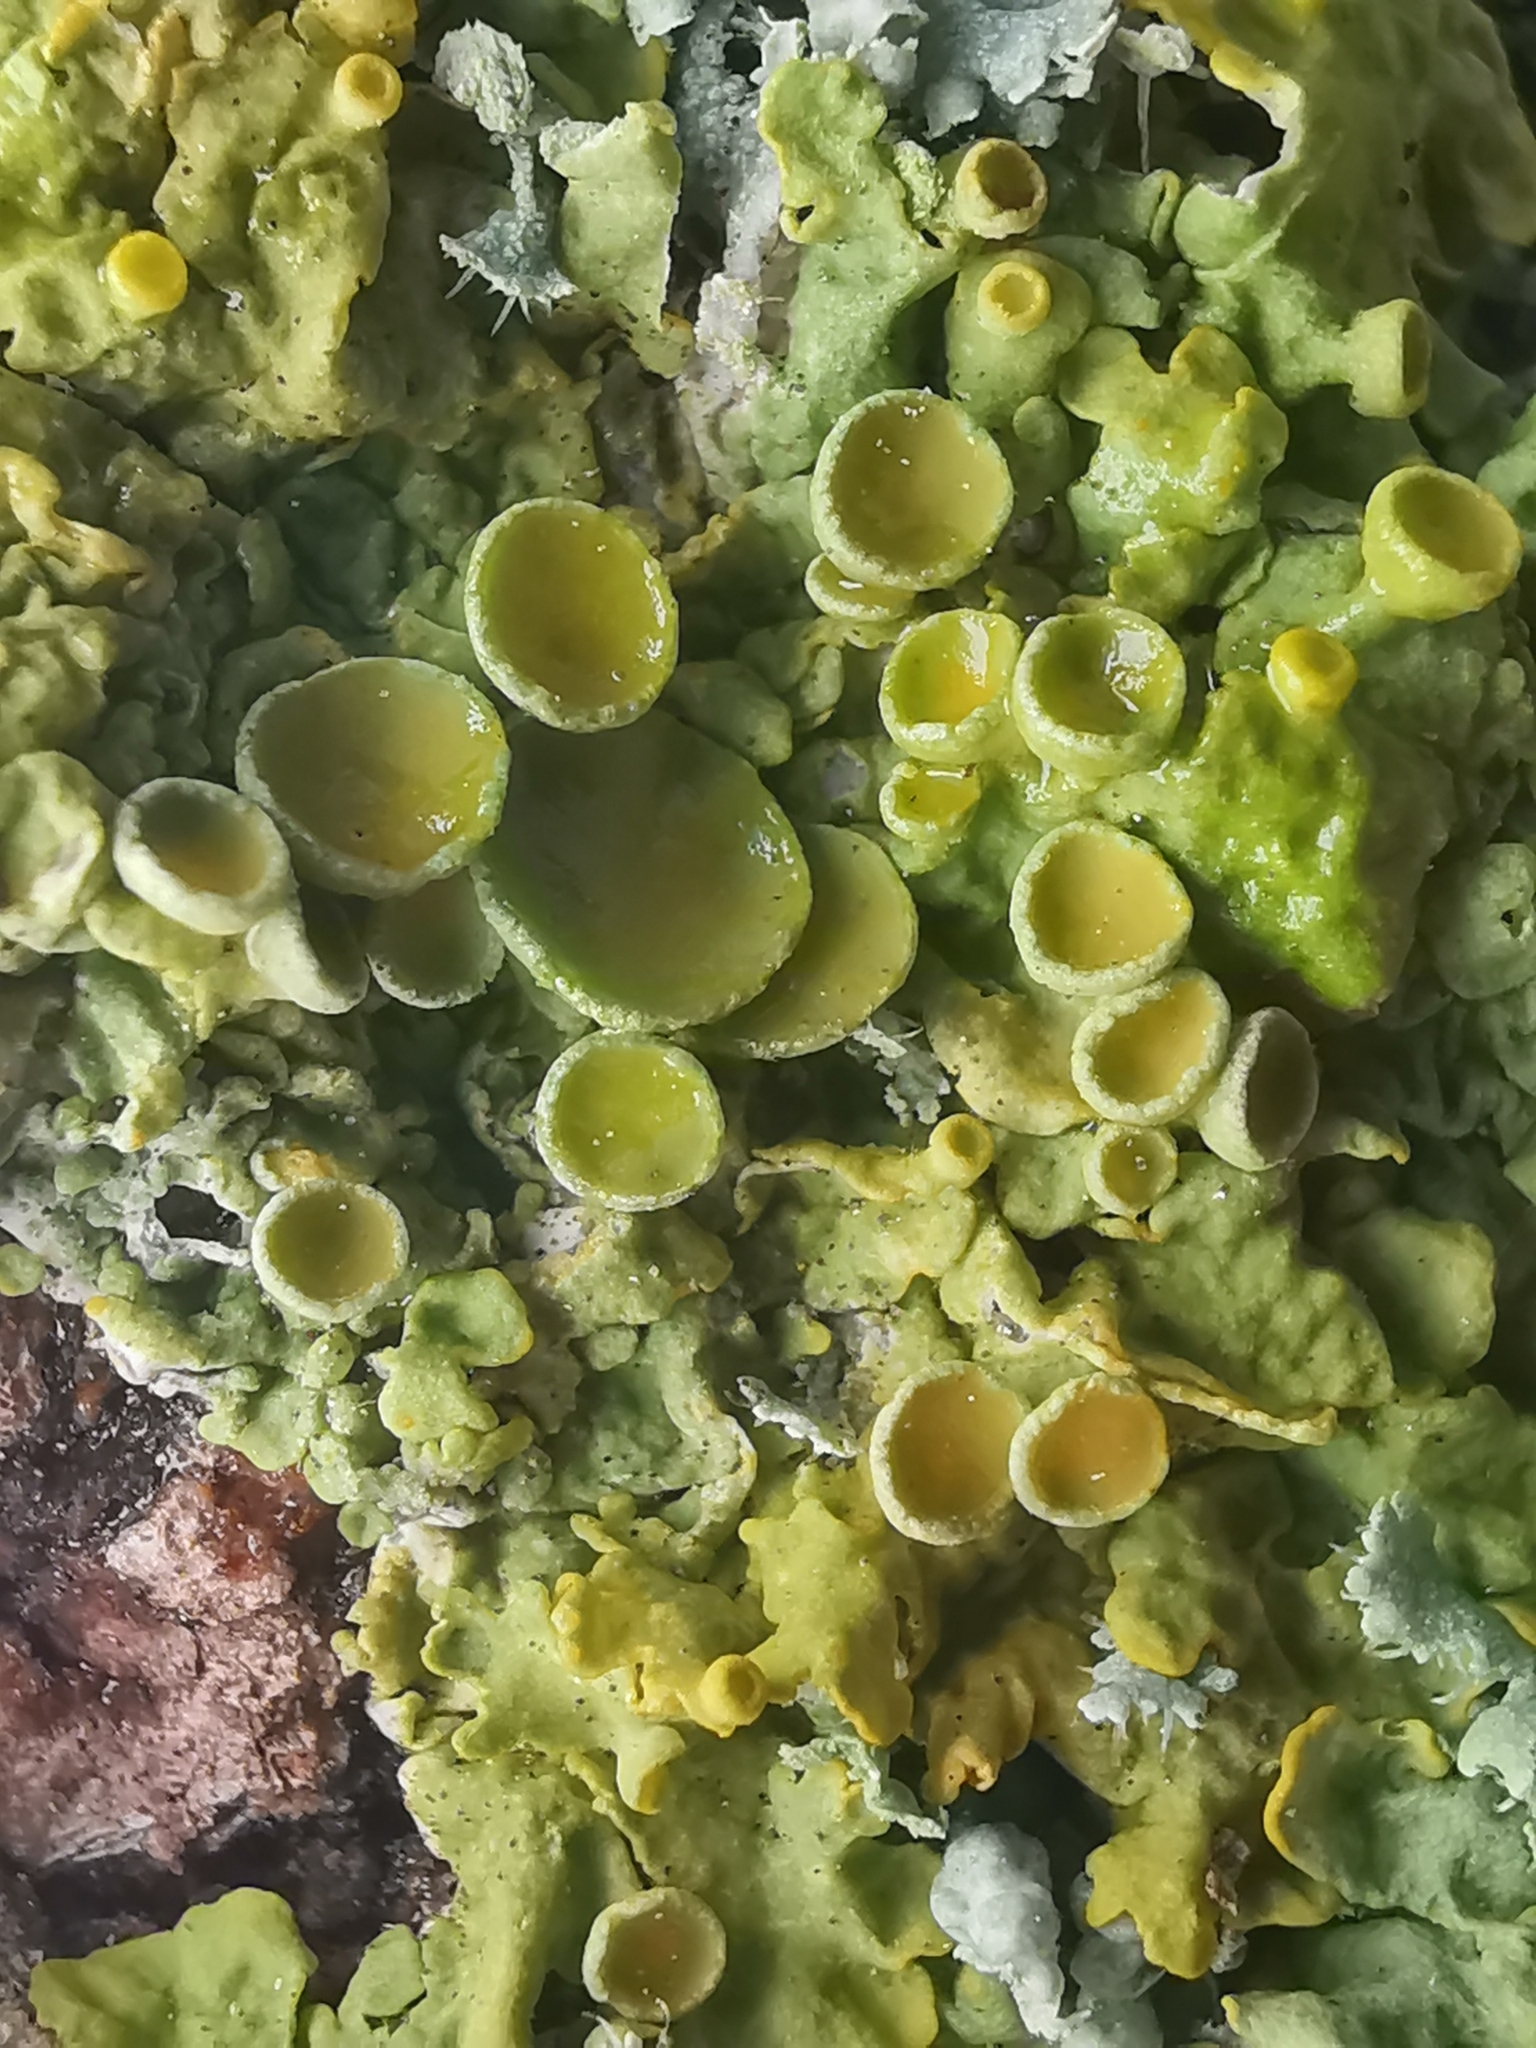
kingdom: Fungi
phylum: Ascomycota
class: Lecanoromycetes
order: Teloschistales
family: Teloschistaceae
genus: Xanthoria
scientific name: Xanthoria parietina
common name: Common orange lichen
